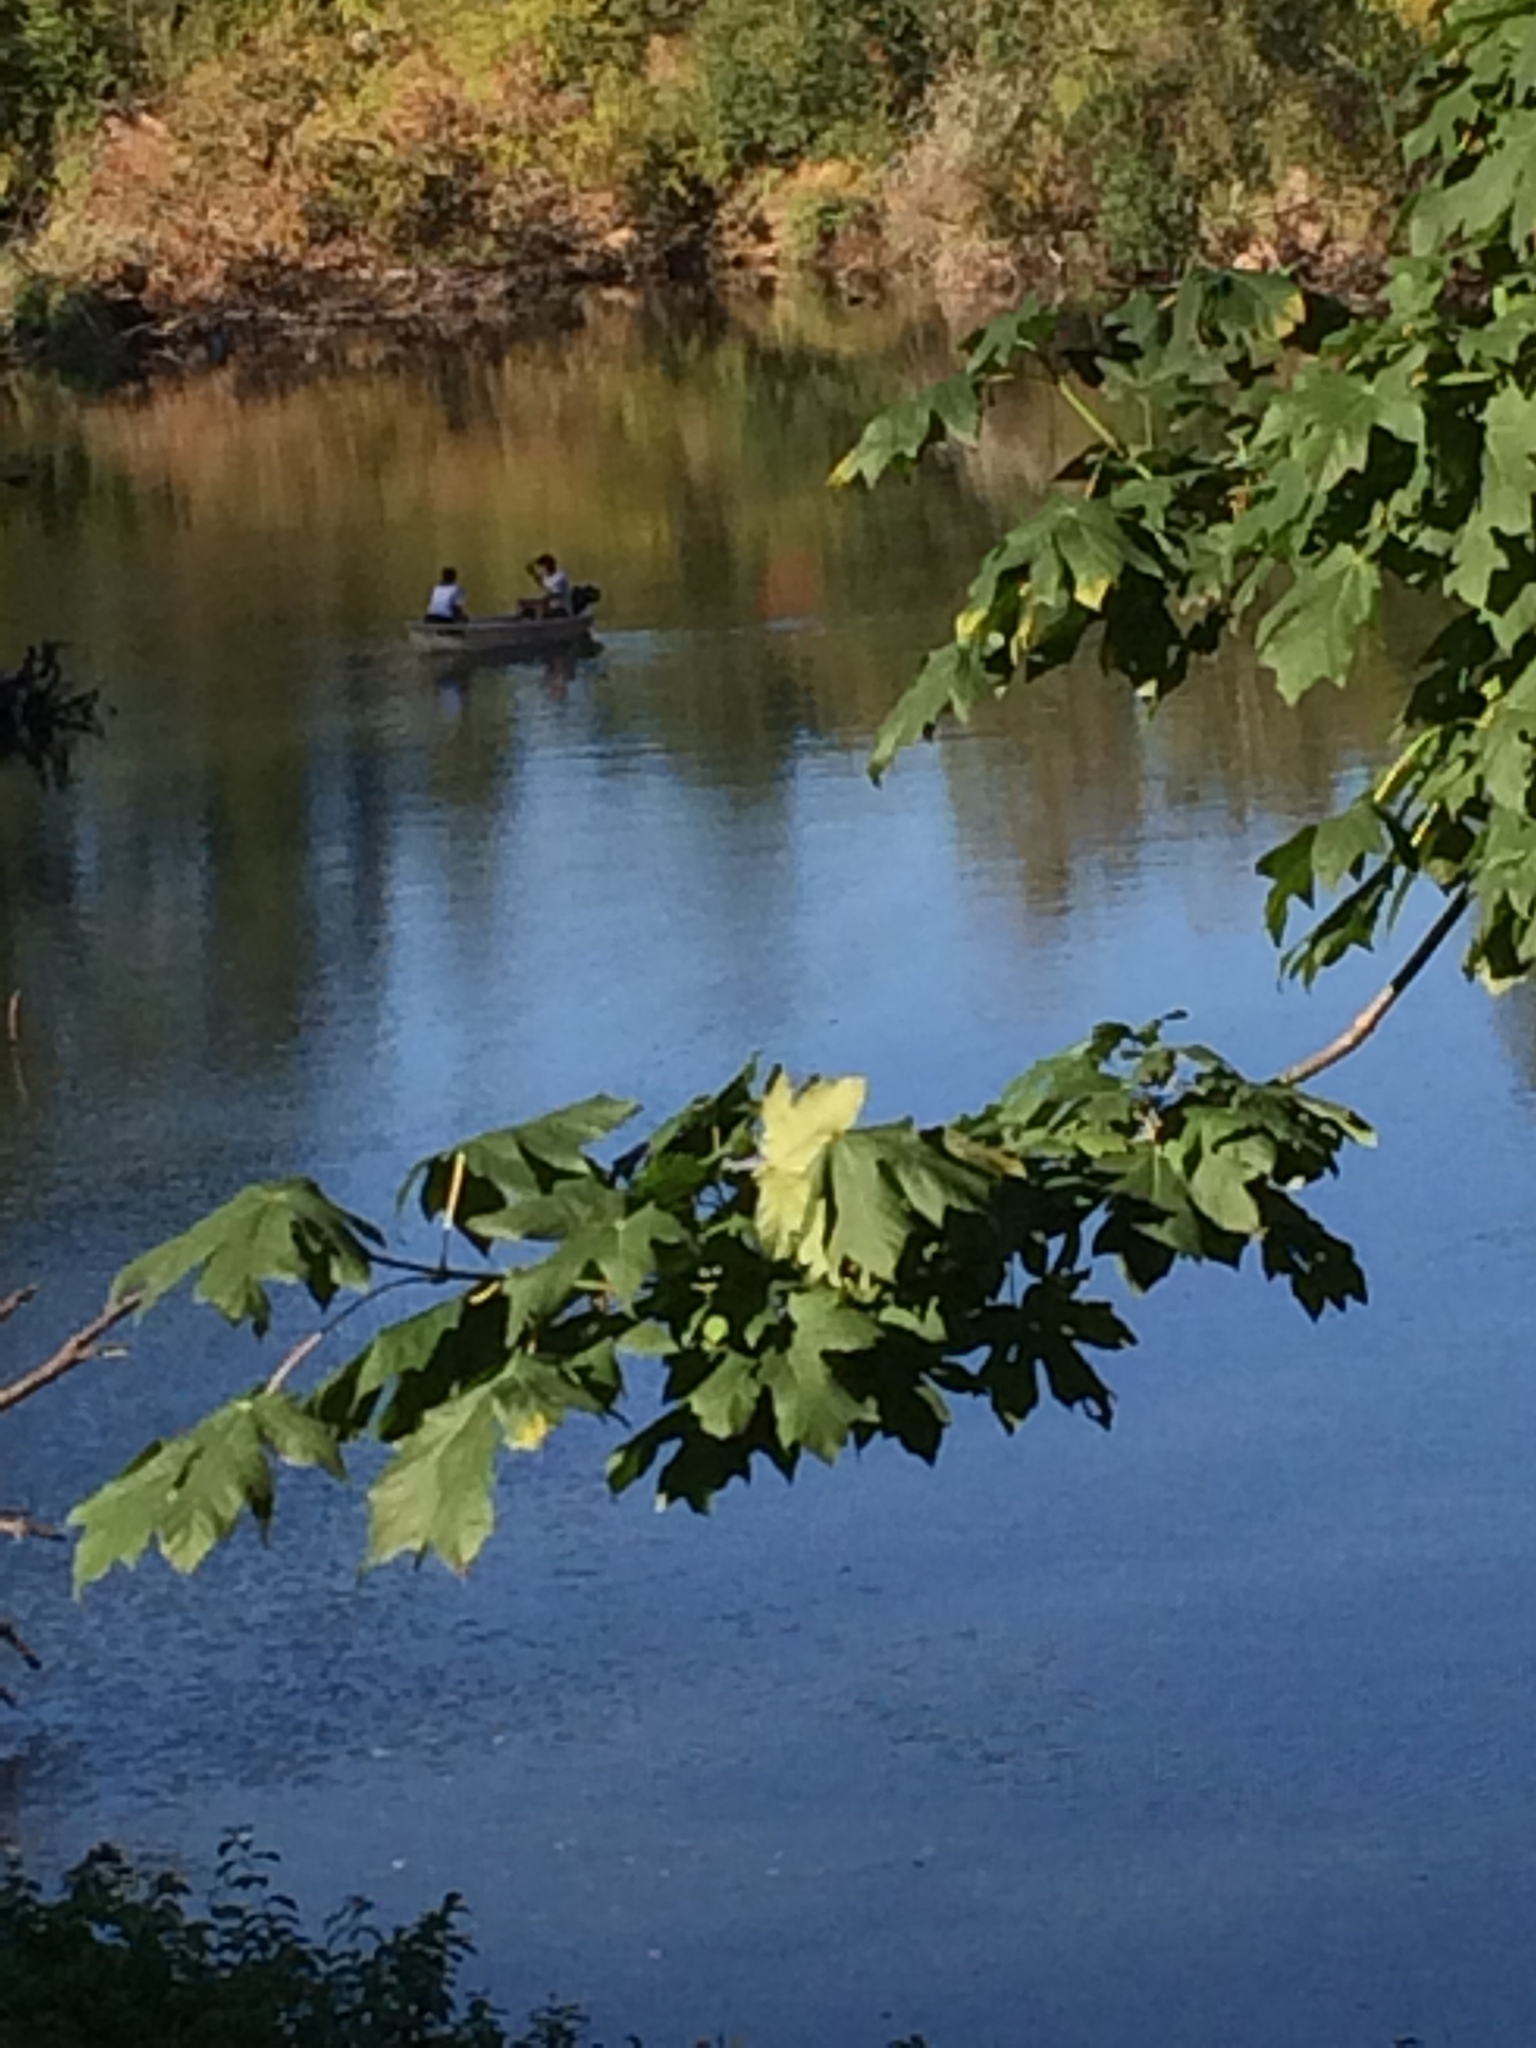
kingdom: Plantae
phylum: Tracheophyta
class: Magnoliopsida
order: Sapindales
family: Sapindaceae
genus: Acer
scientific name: Acer macrophyllum
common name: Oregon maple
